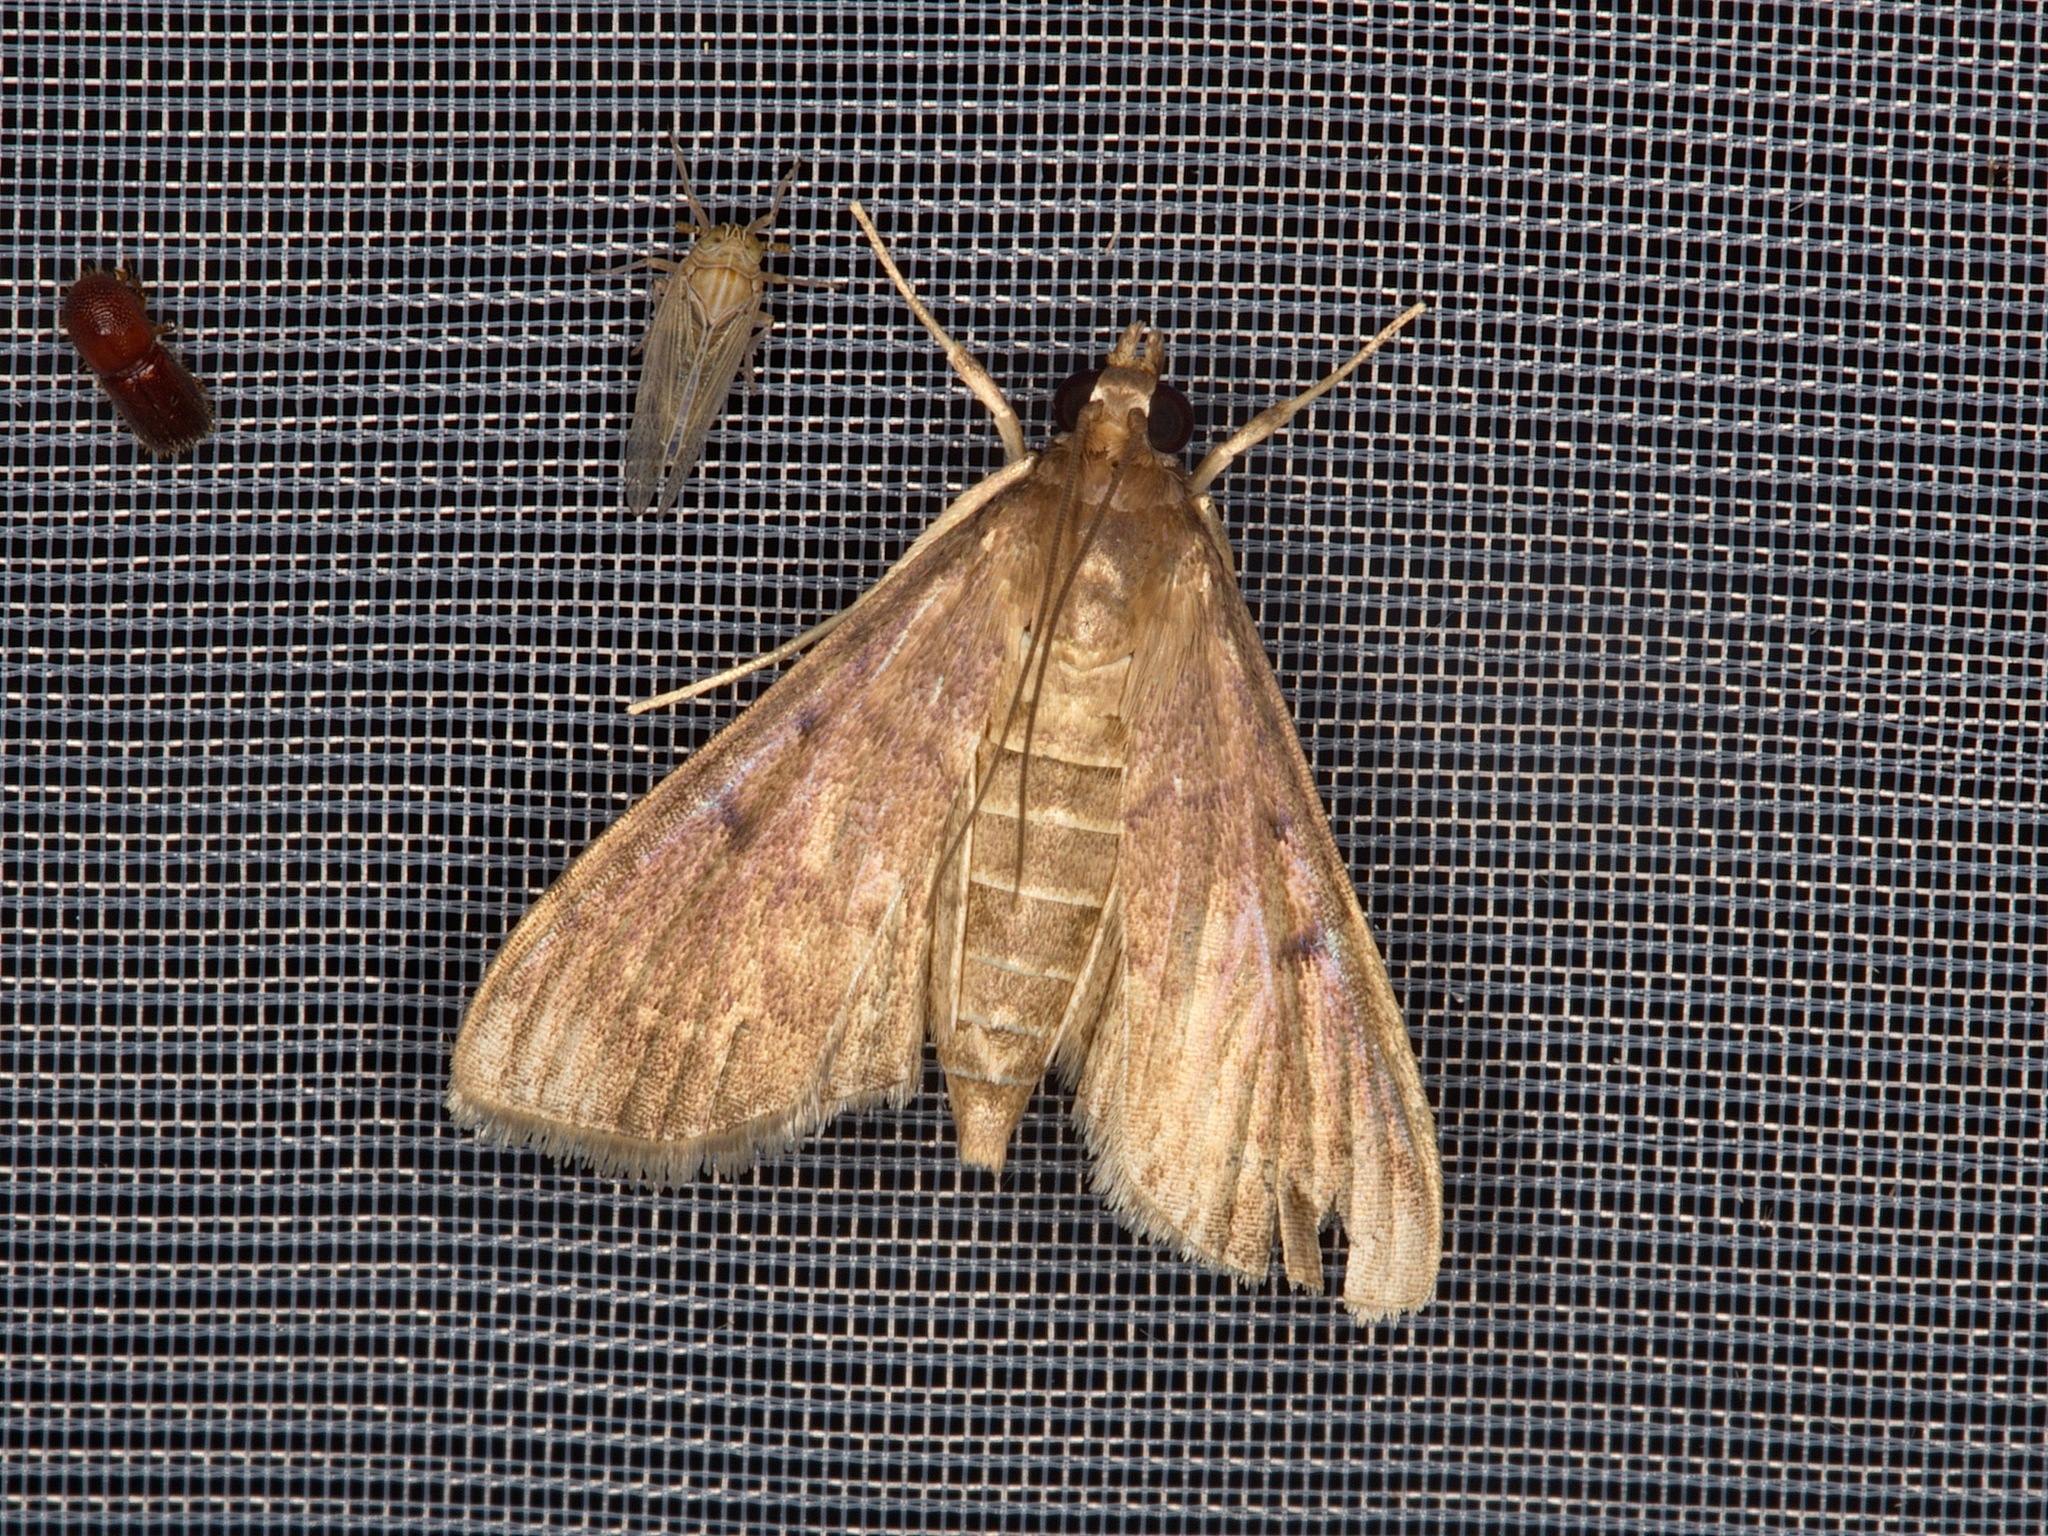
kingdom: Animalia
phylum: Arthropoda
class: Insecta
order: Lepidoptera
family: Crambidae
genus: Herpetogramma
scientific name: Herpetogramma phaeopteralis
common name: Dusky herpetogramma moth
